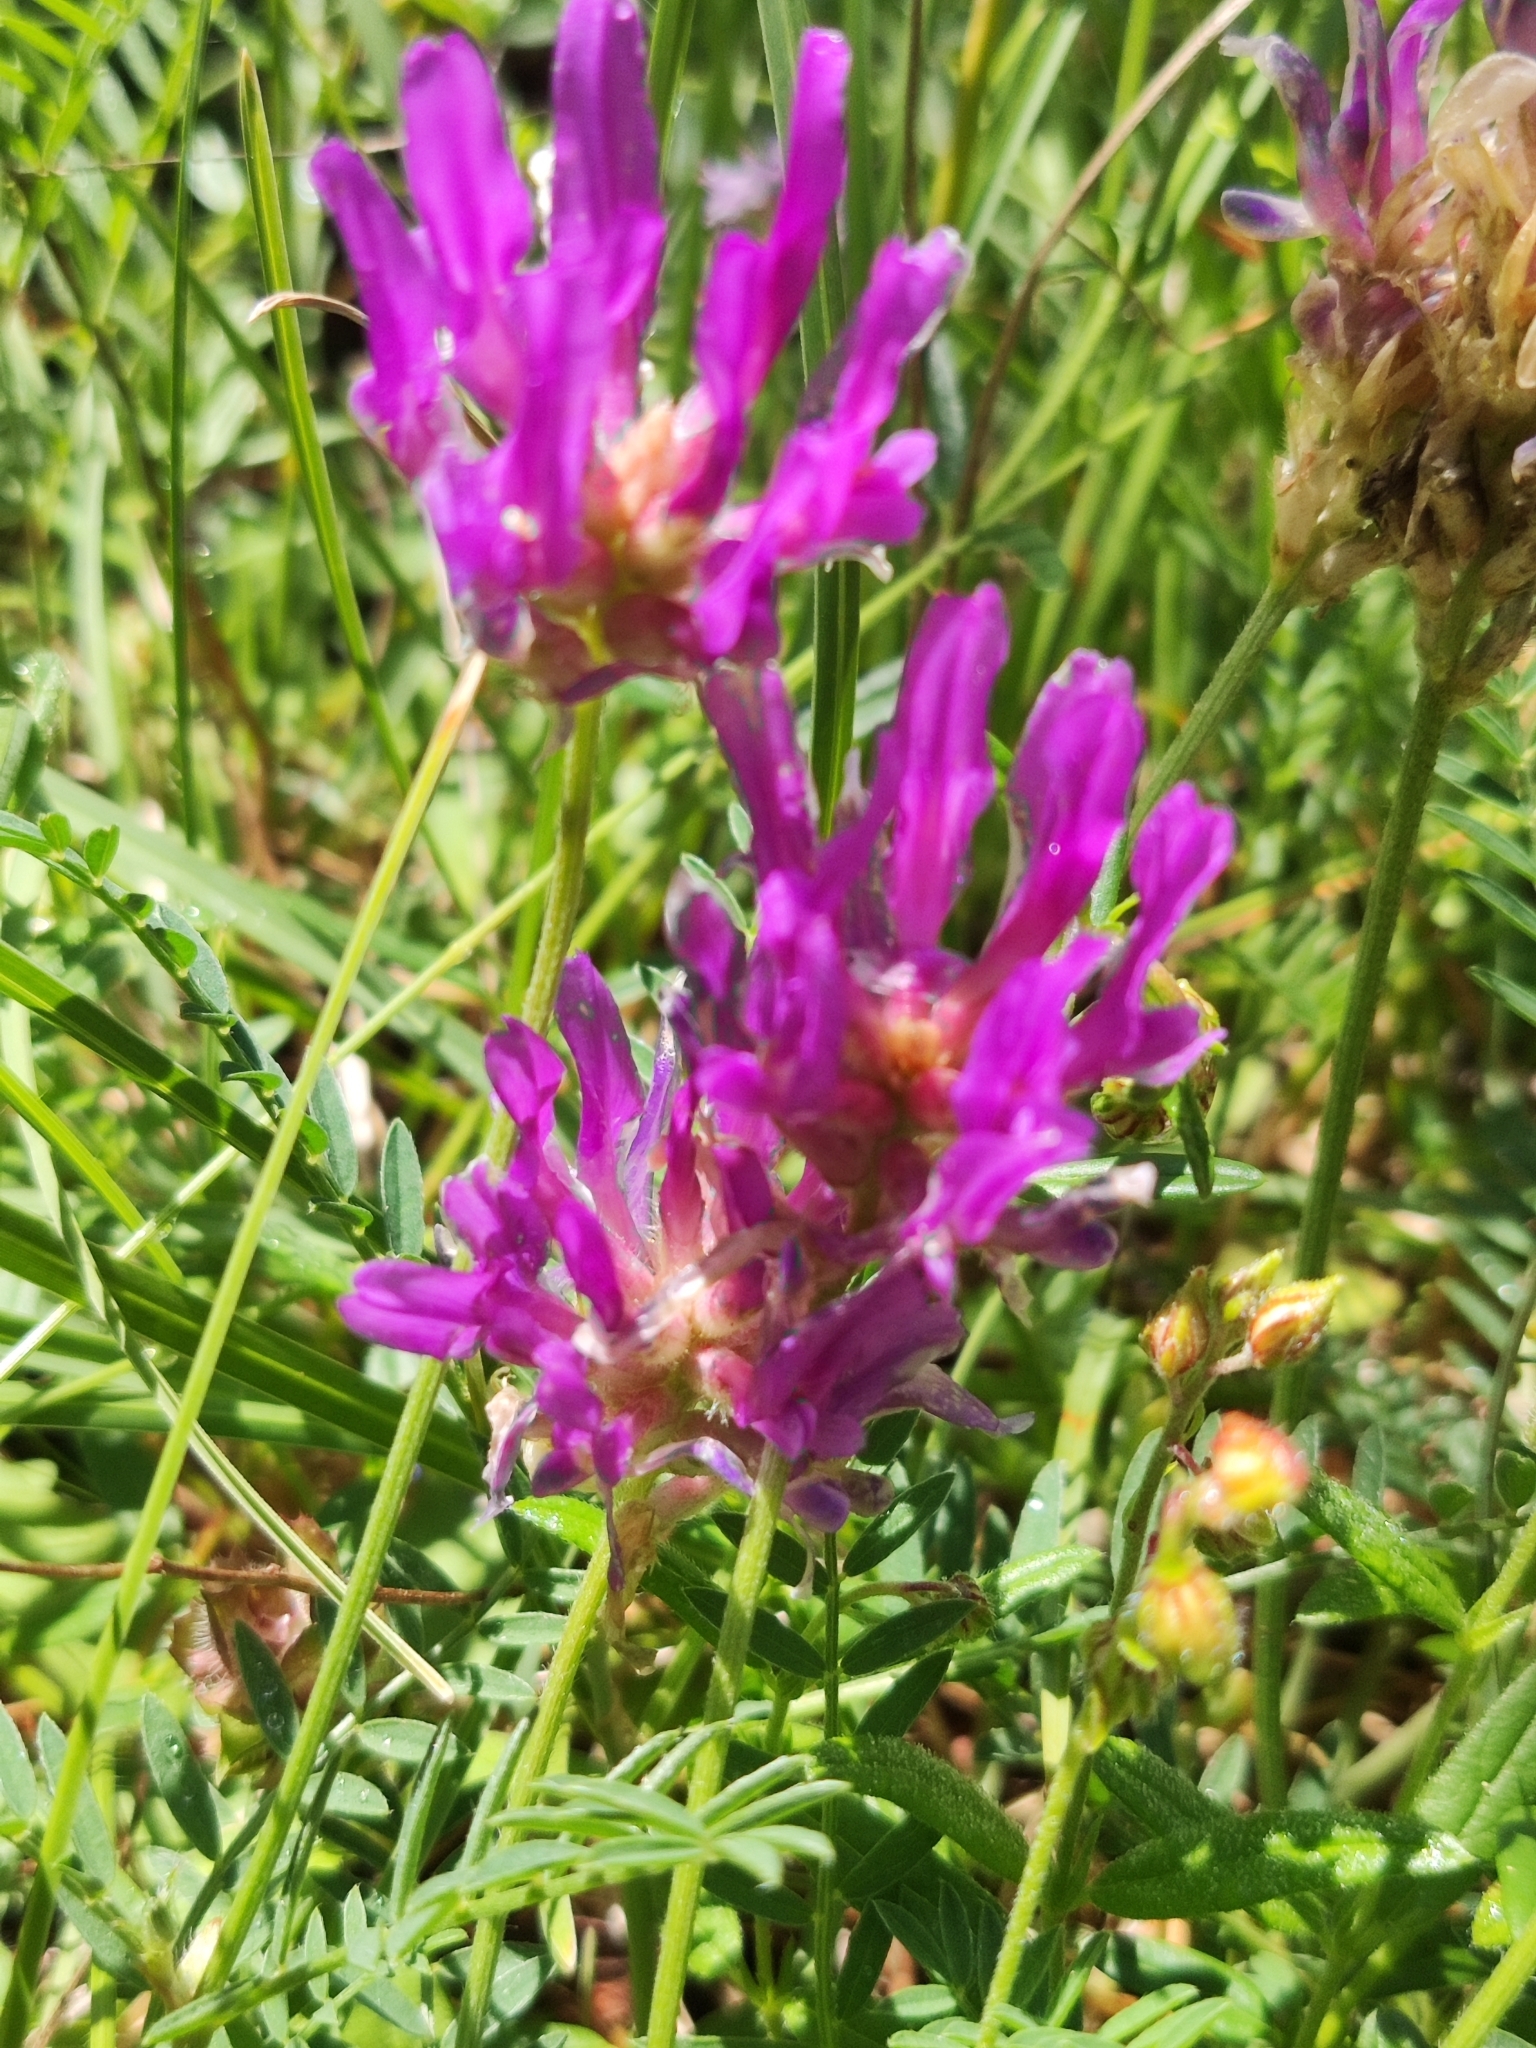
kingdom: Plantae
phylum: Tracheophyta
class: Magnoliopsida
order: Fabales
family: Fabaceae
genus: Astragalus
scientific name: Astragalus onobrychis
